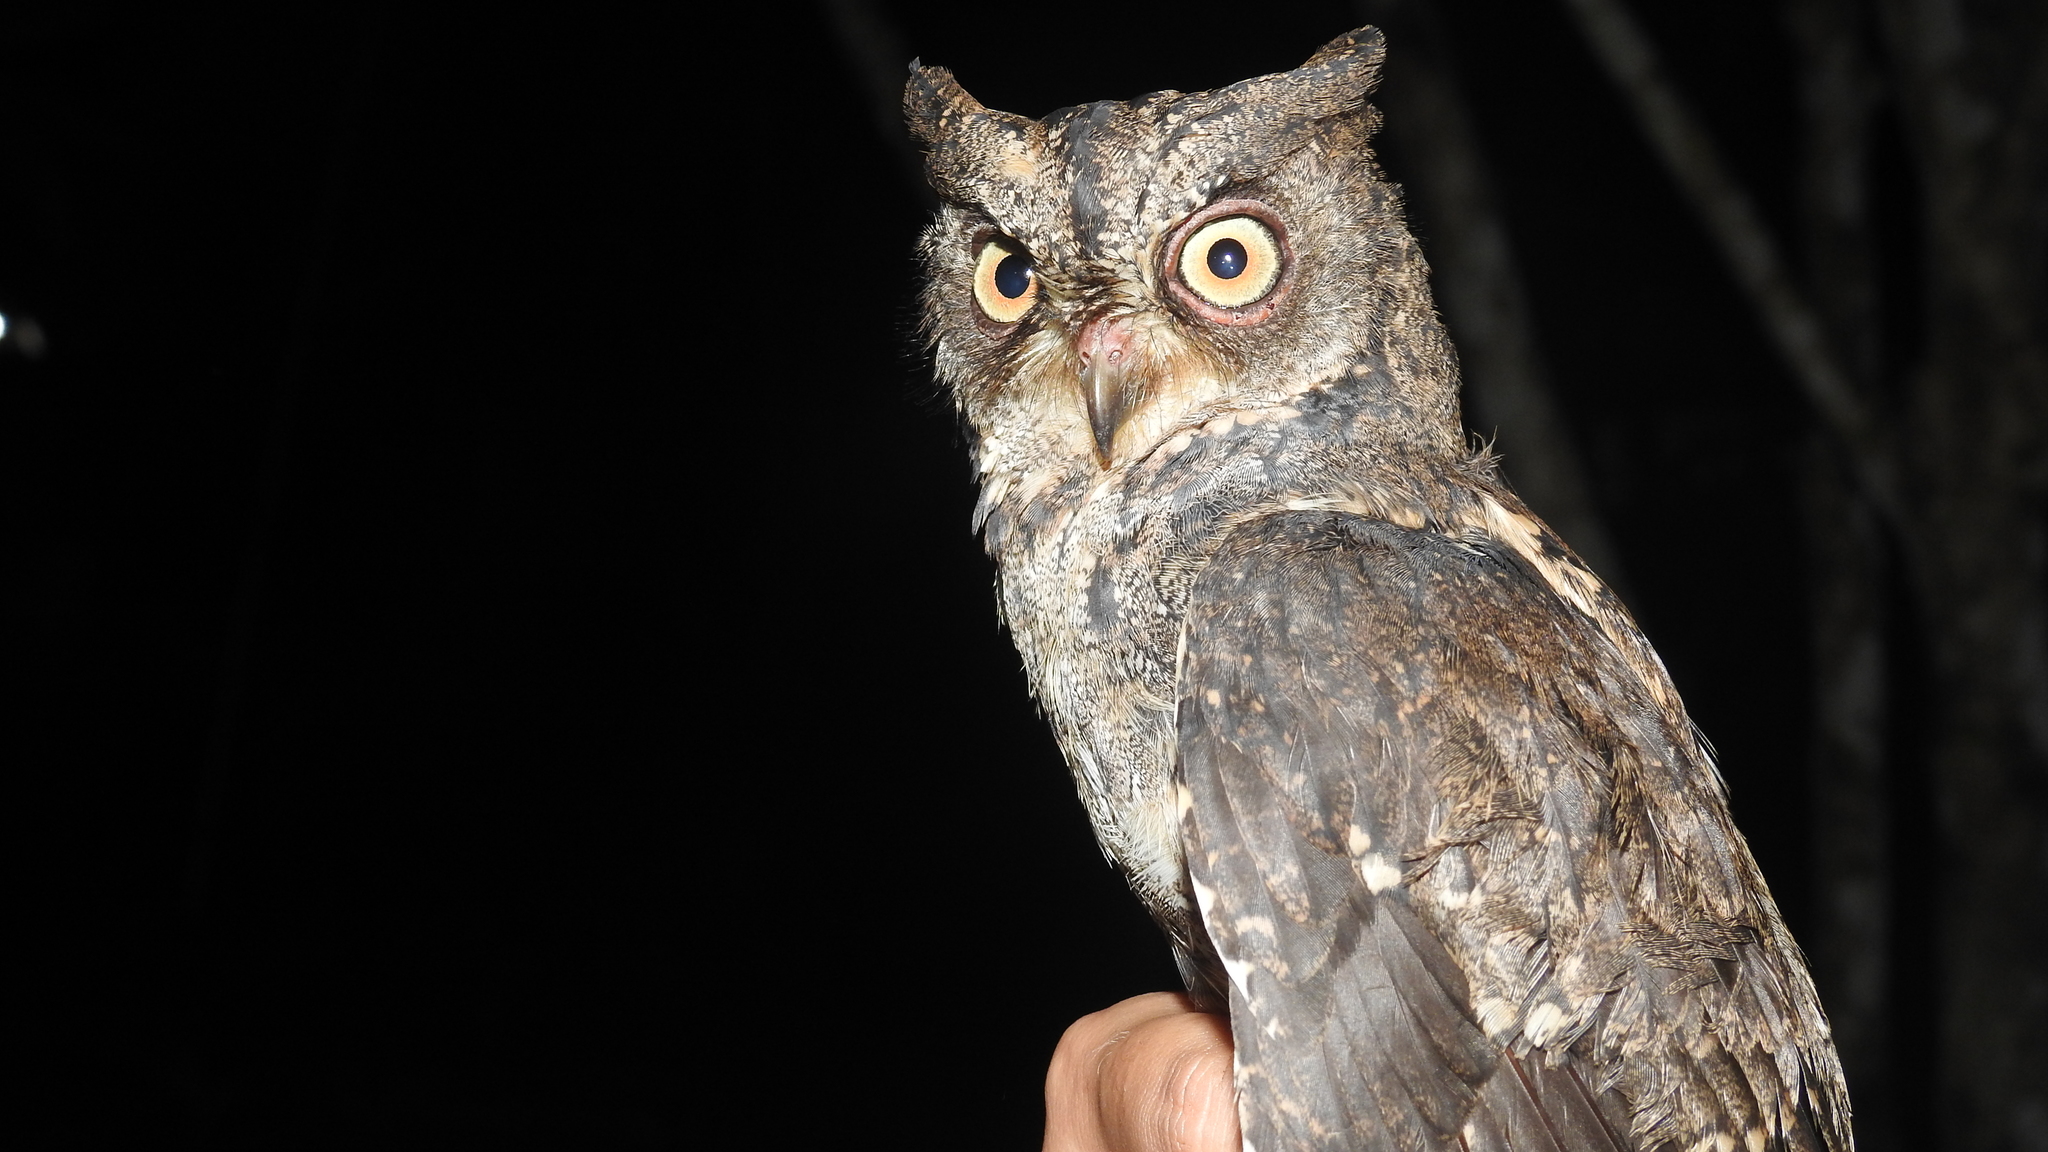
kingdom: Animalia
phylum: Chordata
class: Aves
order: Strigiformes
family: Strigidae
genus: Otus
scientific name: Otus manadensis
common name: Sulawesi scops owl
